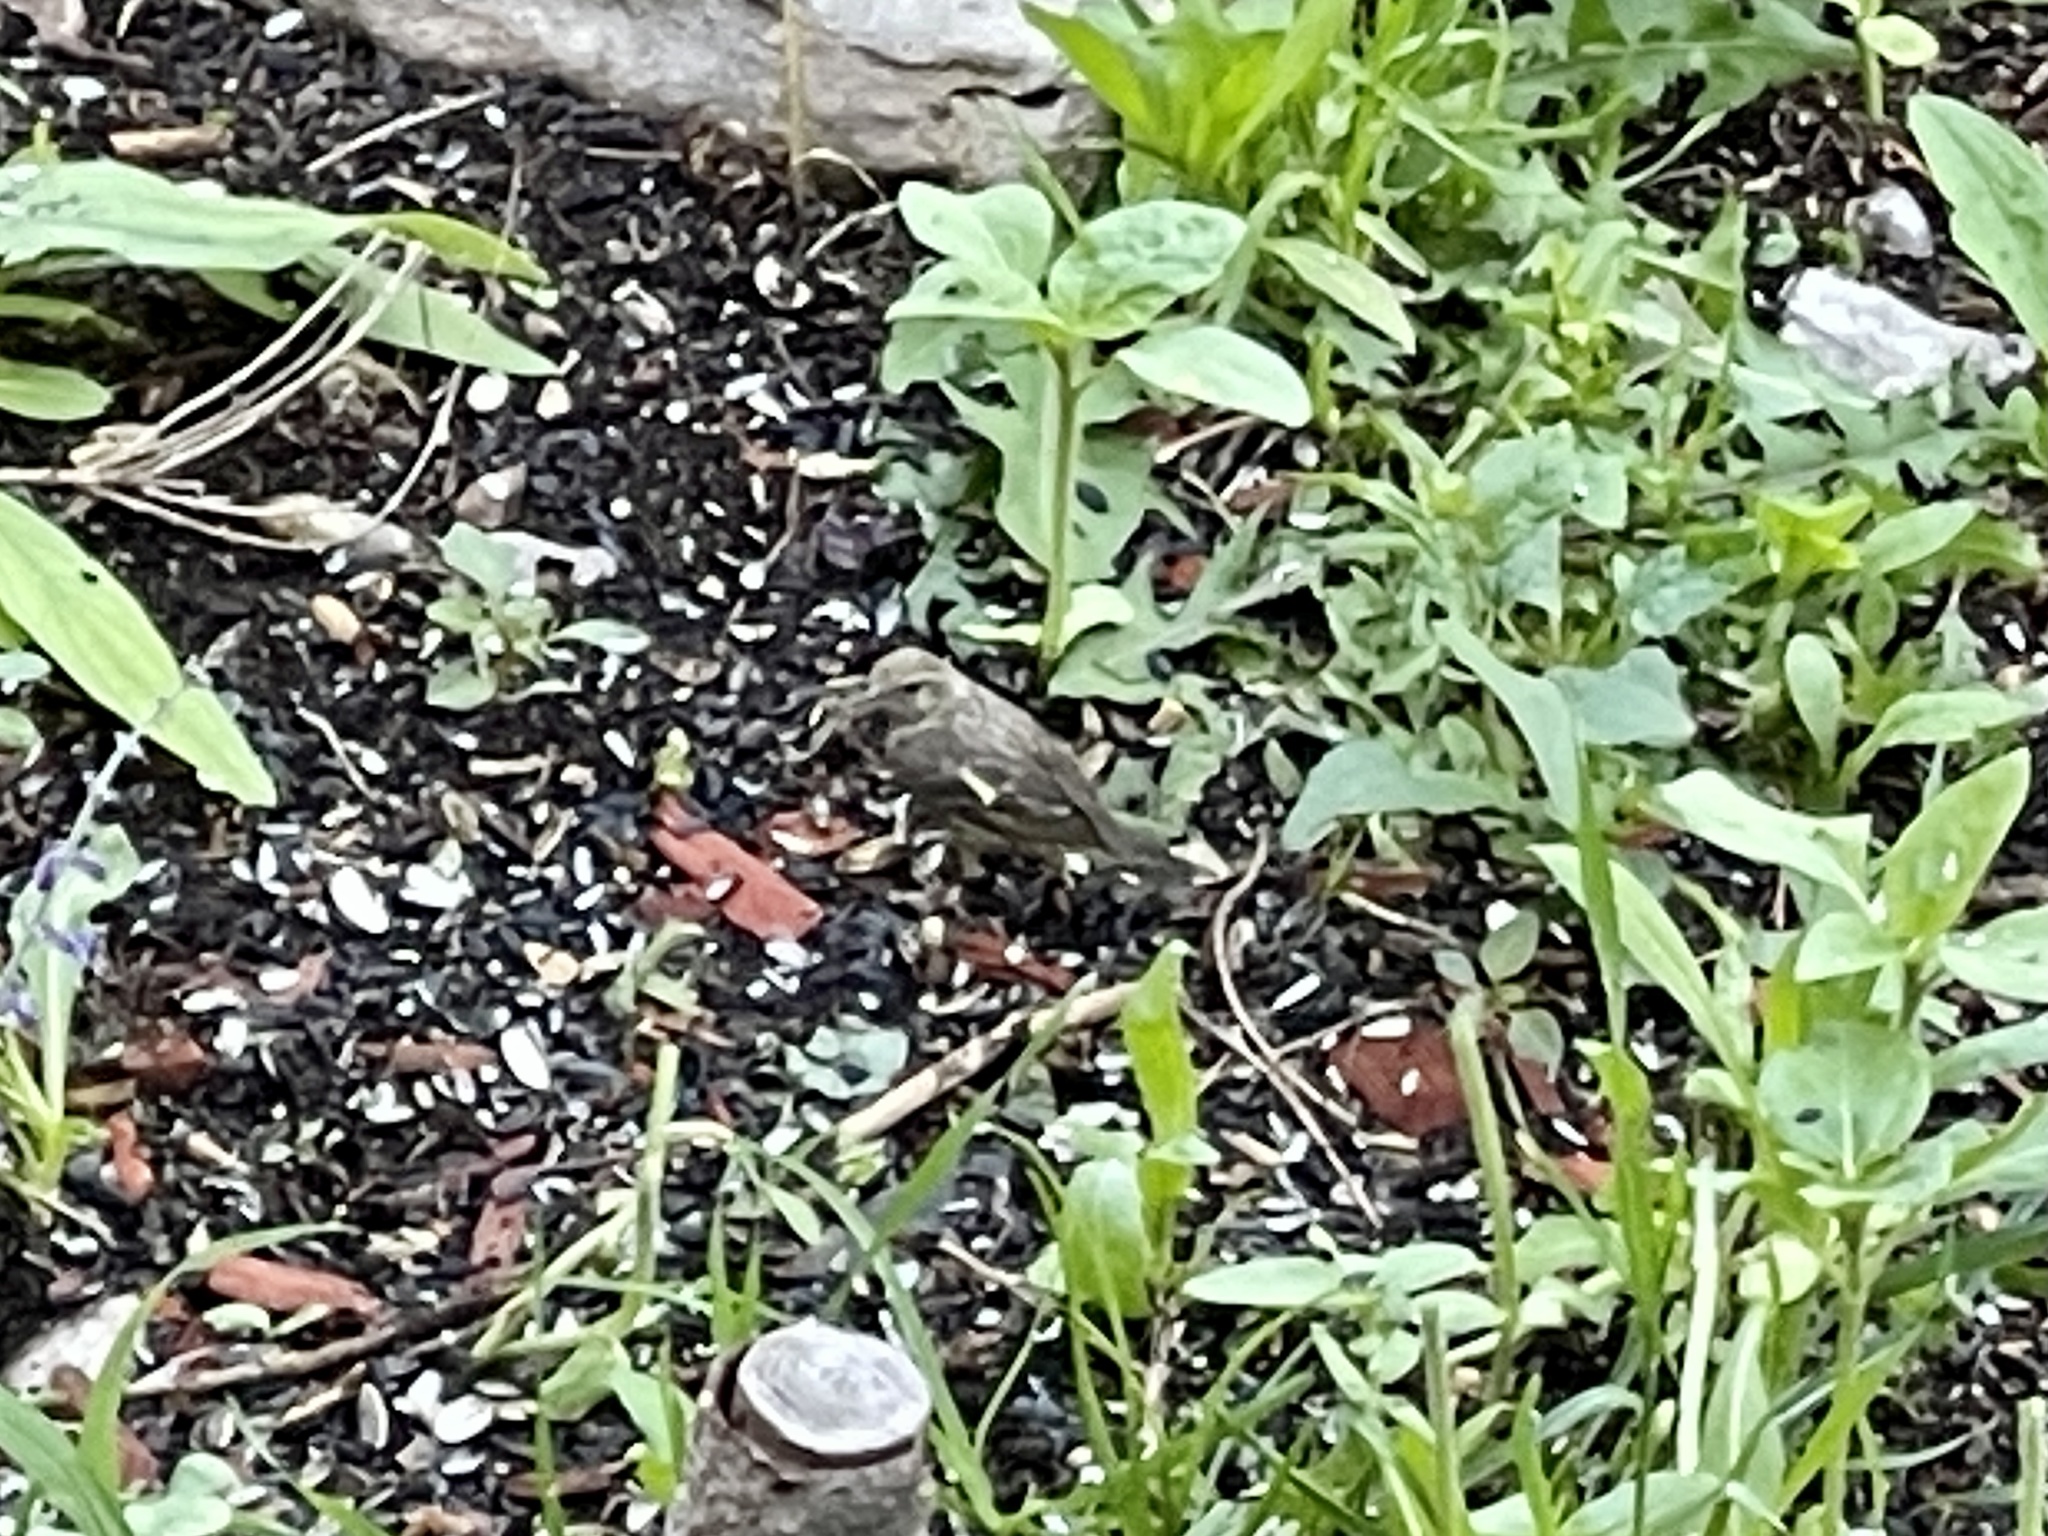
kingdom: Animalia
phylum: Chordata
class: Aves
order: Passeriformes
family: Fringillidae
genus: Spinus
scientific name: Spinus pinus
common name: Pine siskin
